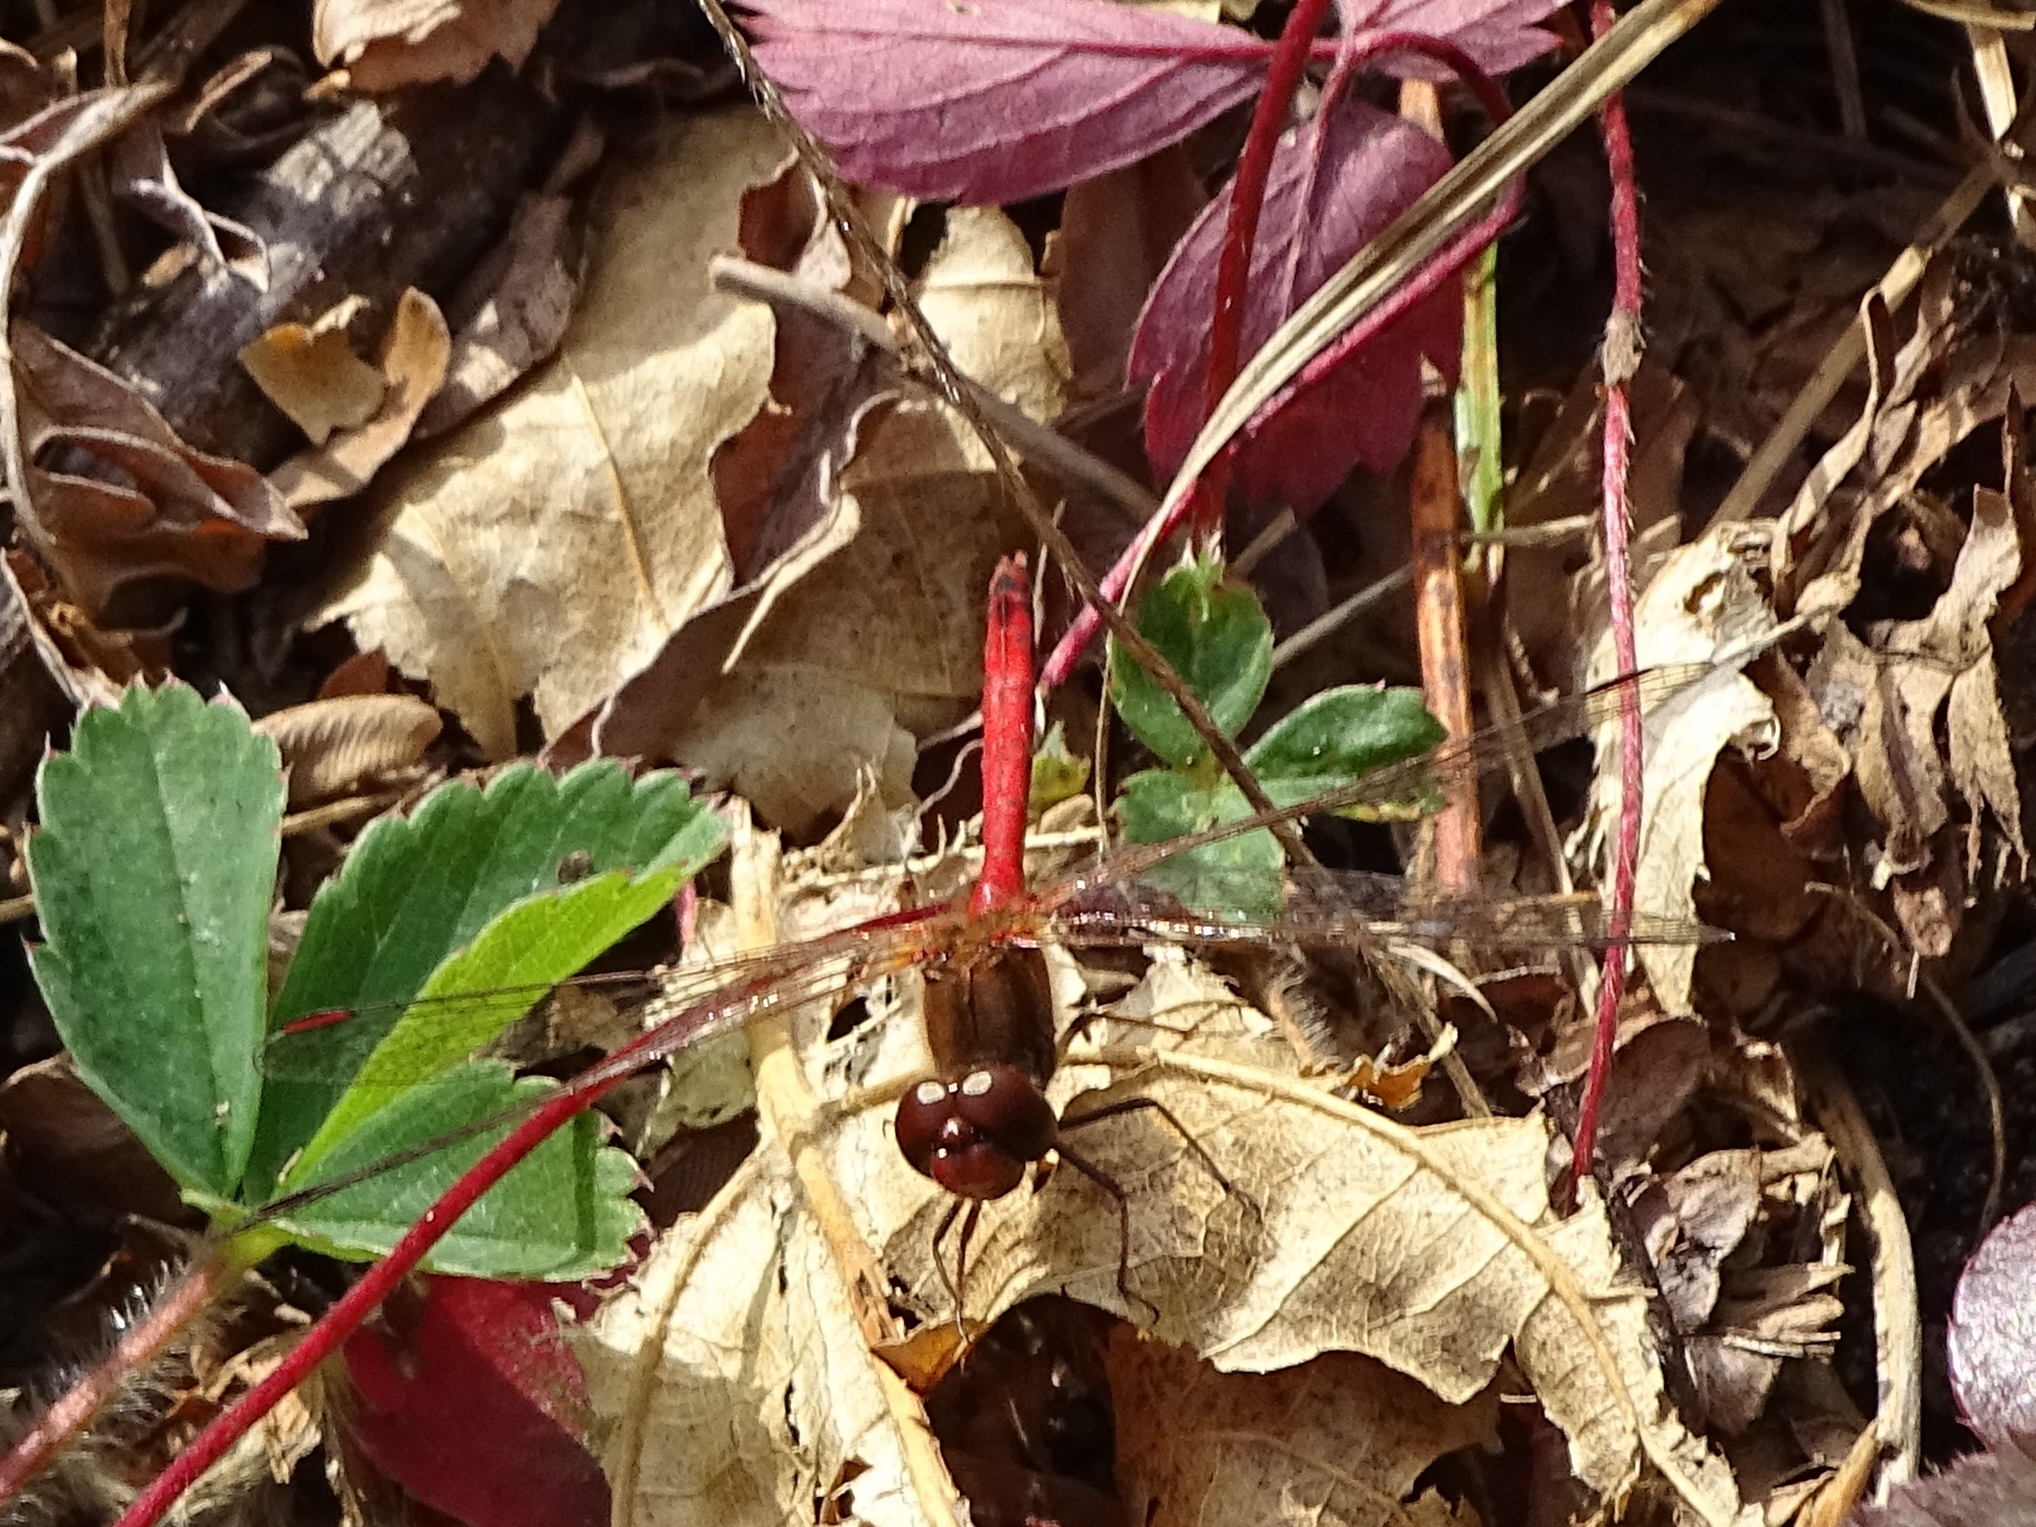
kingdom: Animalia
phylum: Arthropoda
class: Insecta
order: Odonata
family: Libellulidae
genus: Sympetrum
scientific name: Sympetrum vicinum
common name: Autumn meadowhawk
